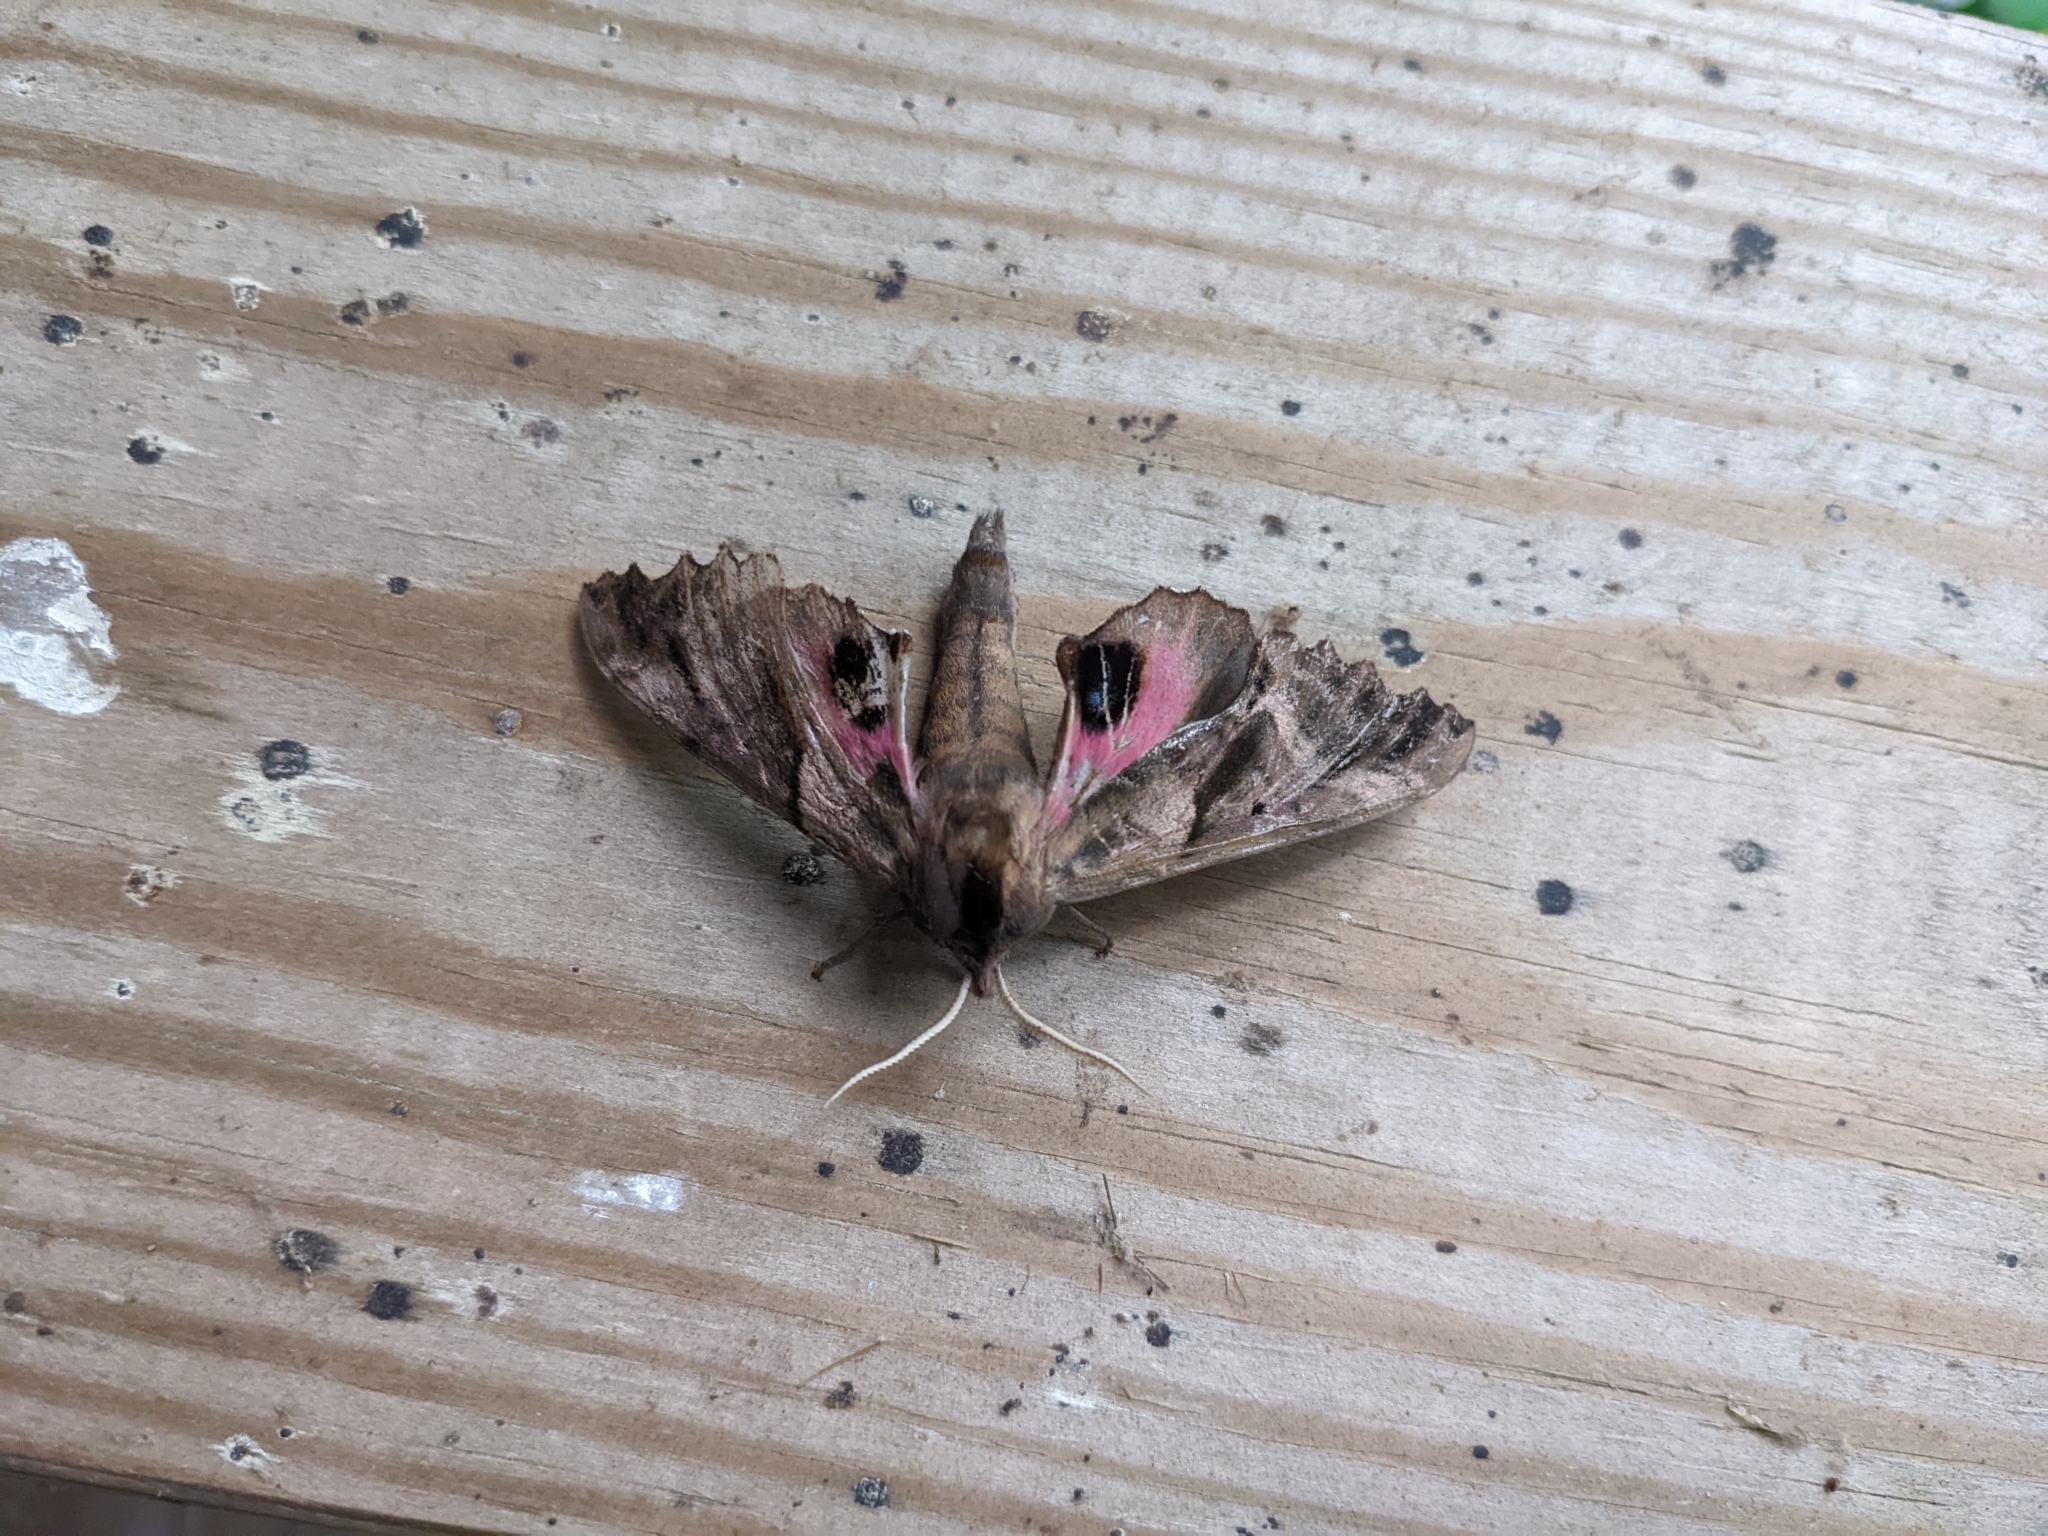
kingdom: Animalia
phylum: Arthropoda
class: Insecta
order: Lepidoptera
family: Sphingidae
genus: Paonias
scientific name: Paonias excaecata
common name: Blind-eyed sphinx
